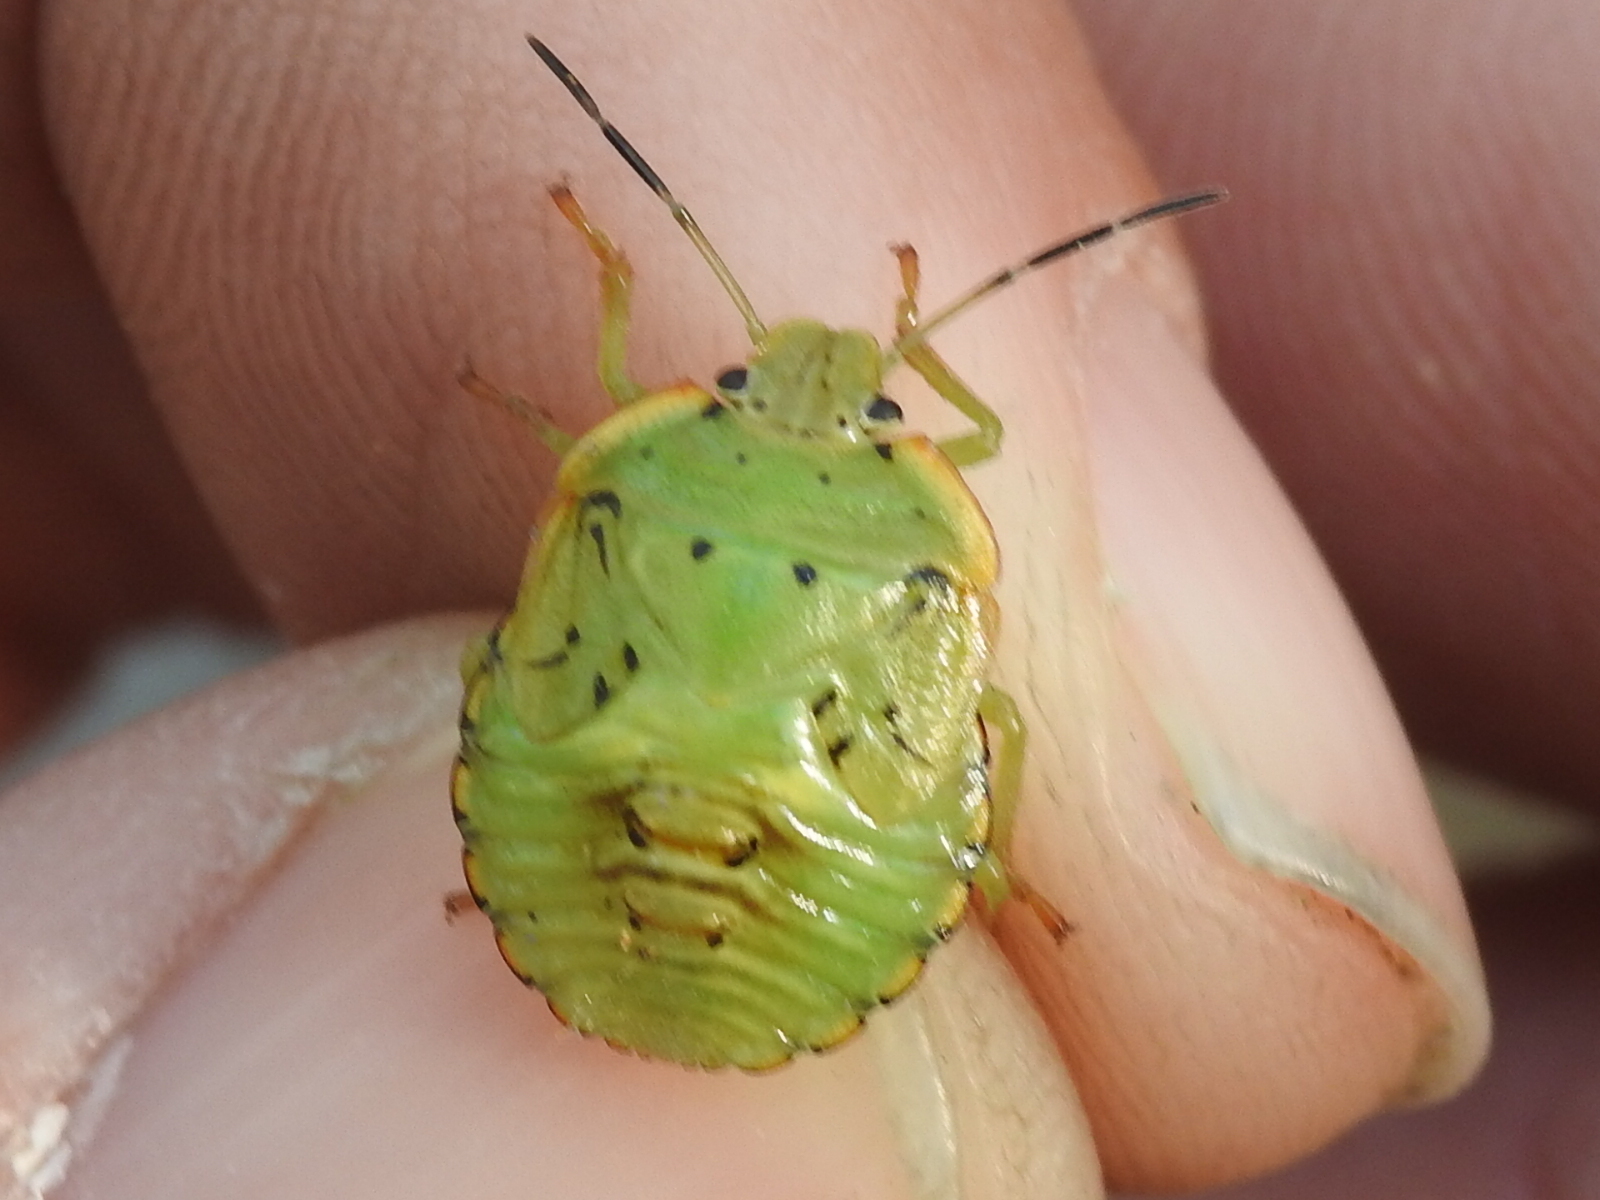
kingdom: Animalia
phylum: Arthropoda
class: Insecta
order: Hemiptera
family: Pentatomidae
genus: Chinavia
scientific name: Chinavia hilaris
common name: Green stink bug
